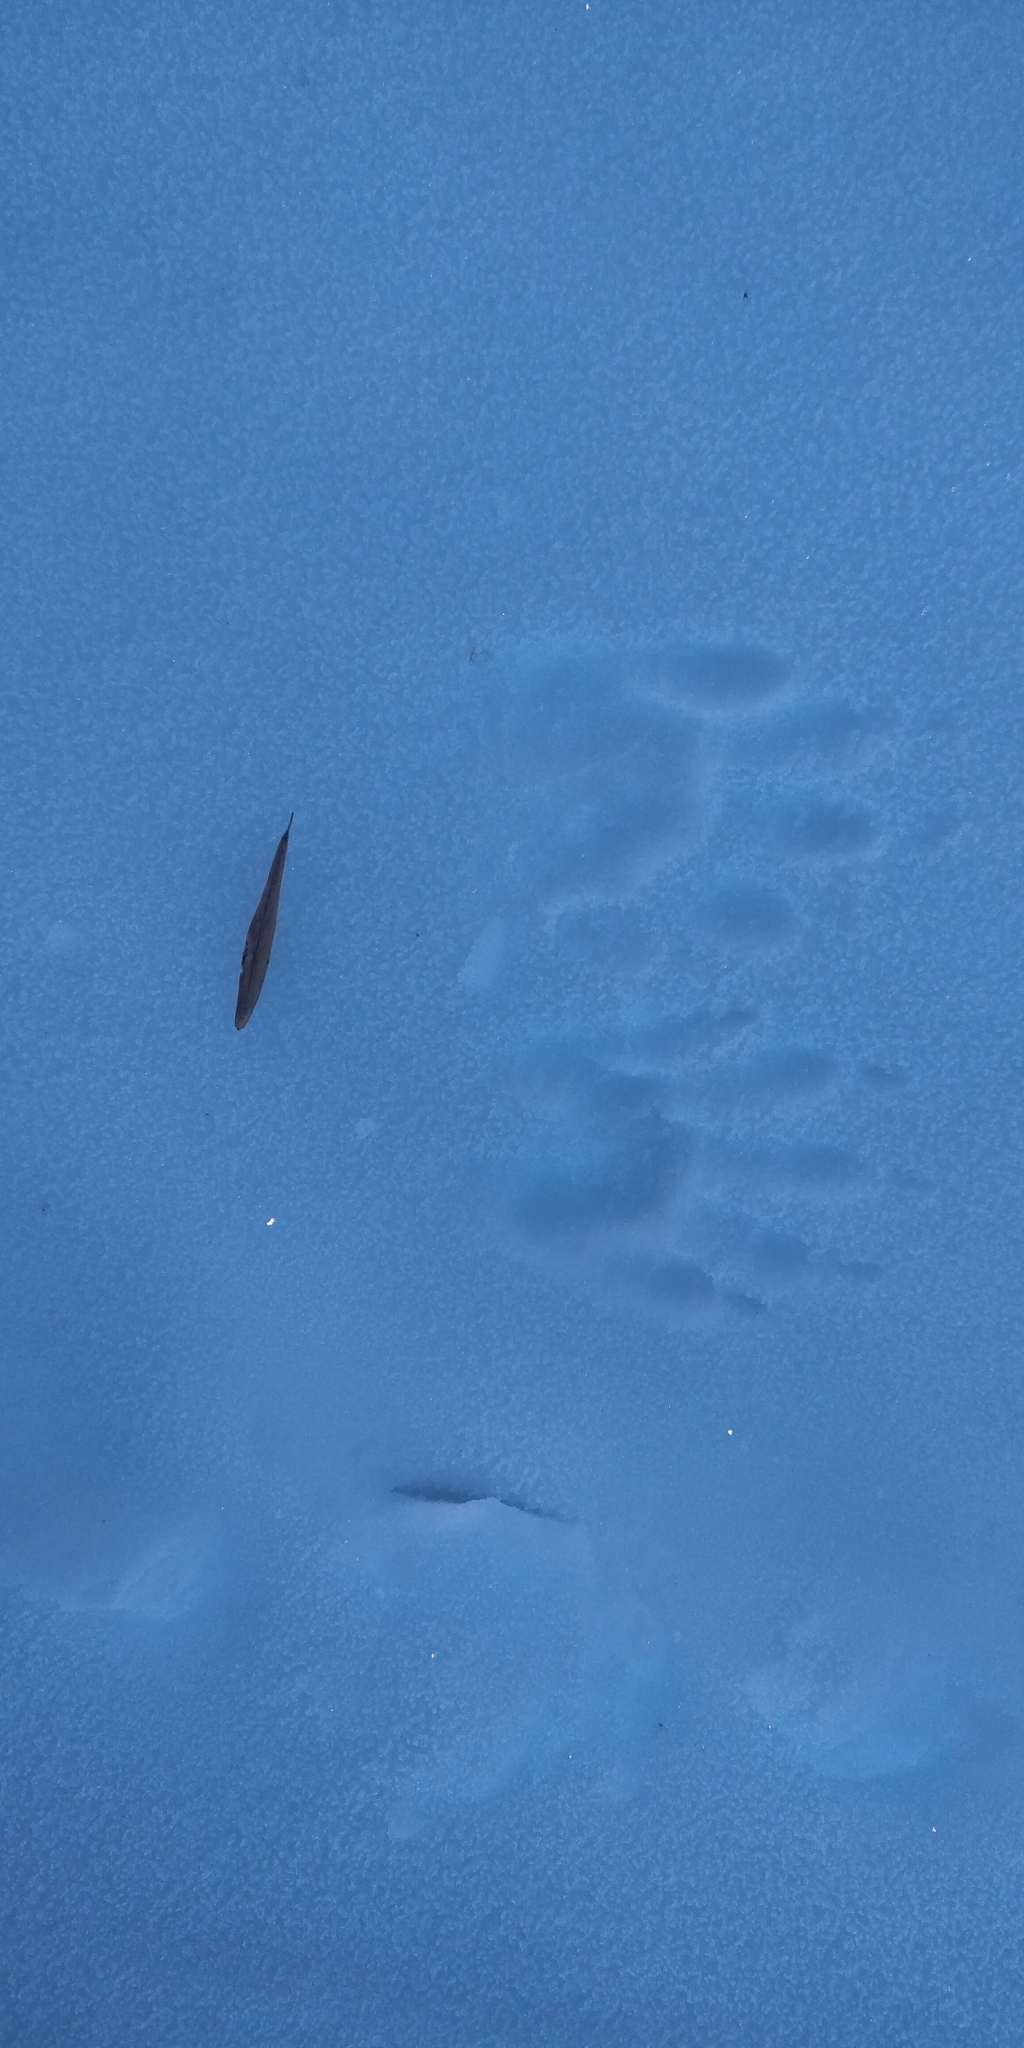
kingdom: Animalia
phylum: Chordata
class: Mammalia
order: Carnivora
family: Procyonidae
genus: Procyon
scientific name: Procyon lotor
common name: Raccoon
